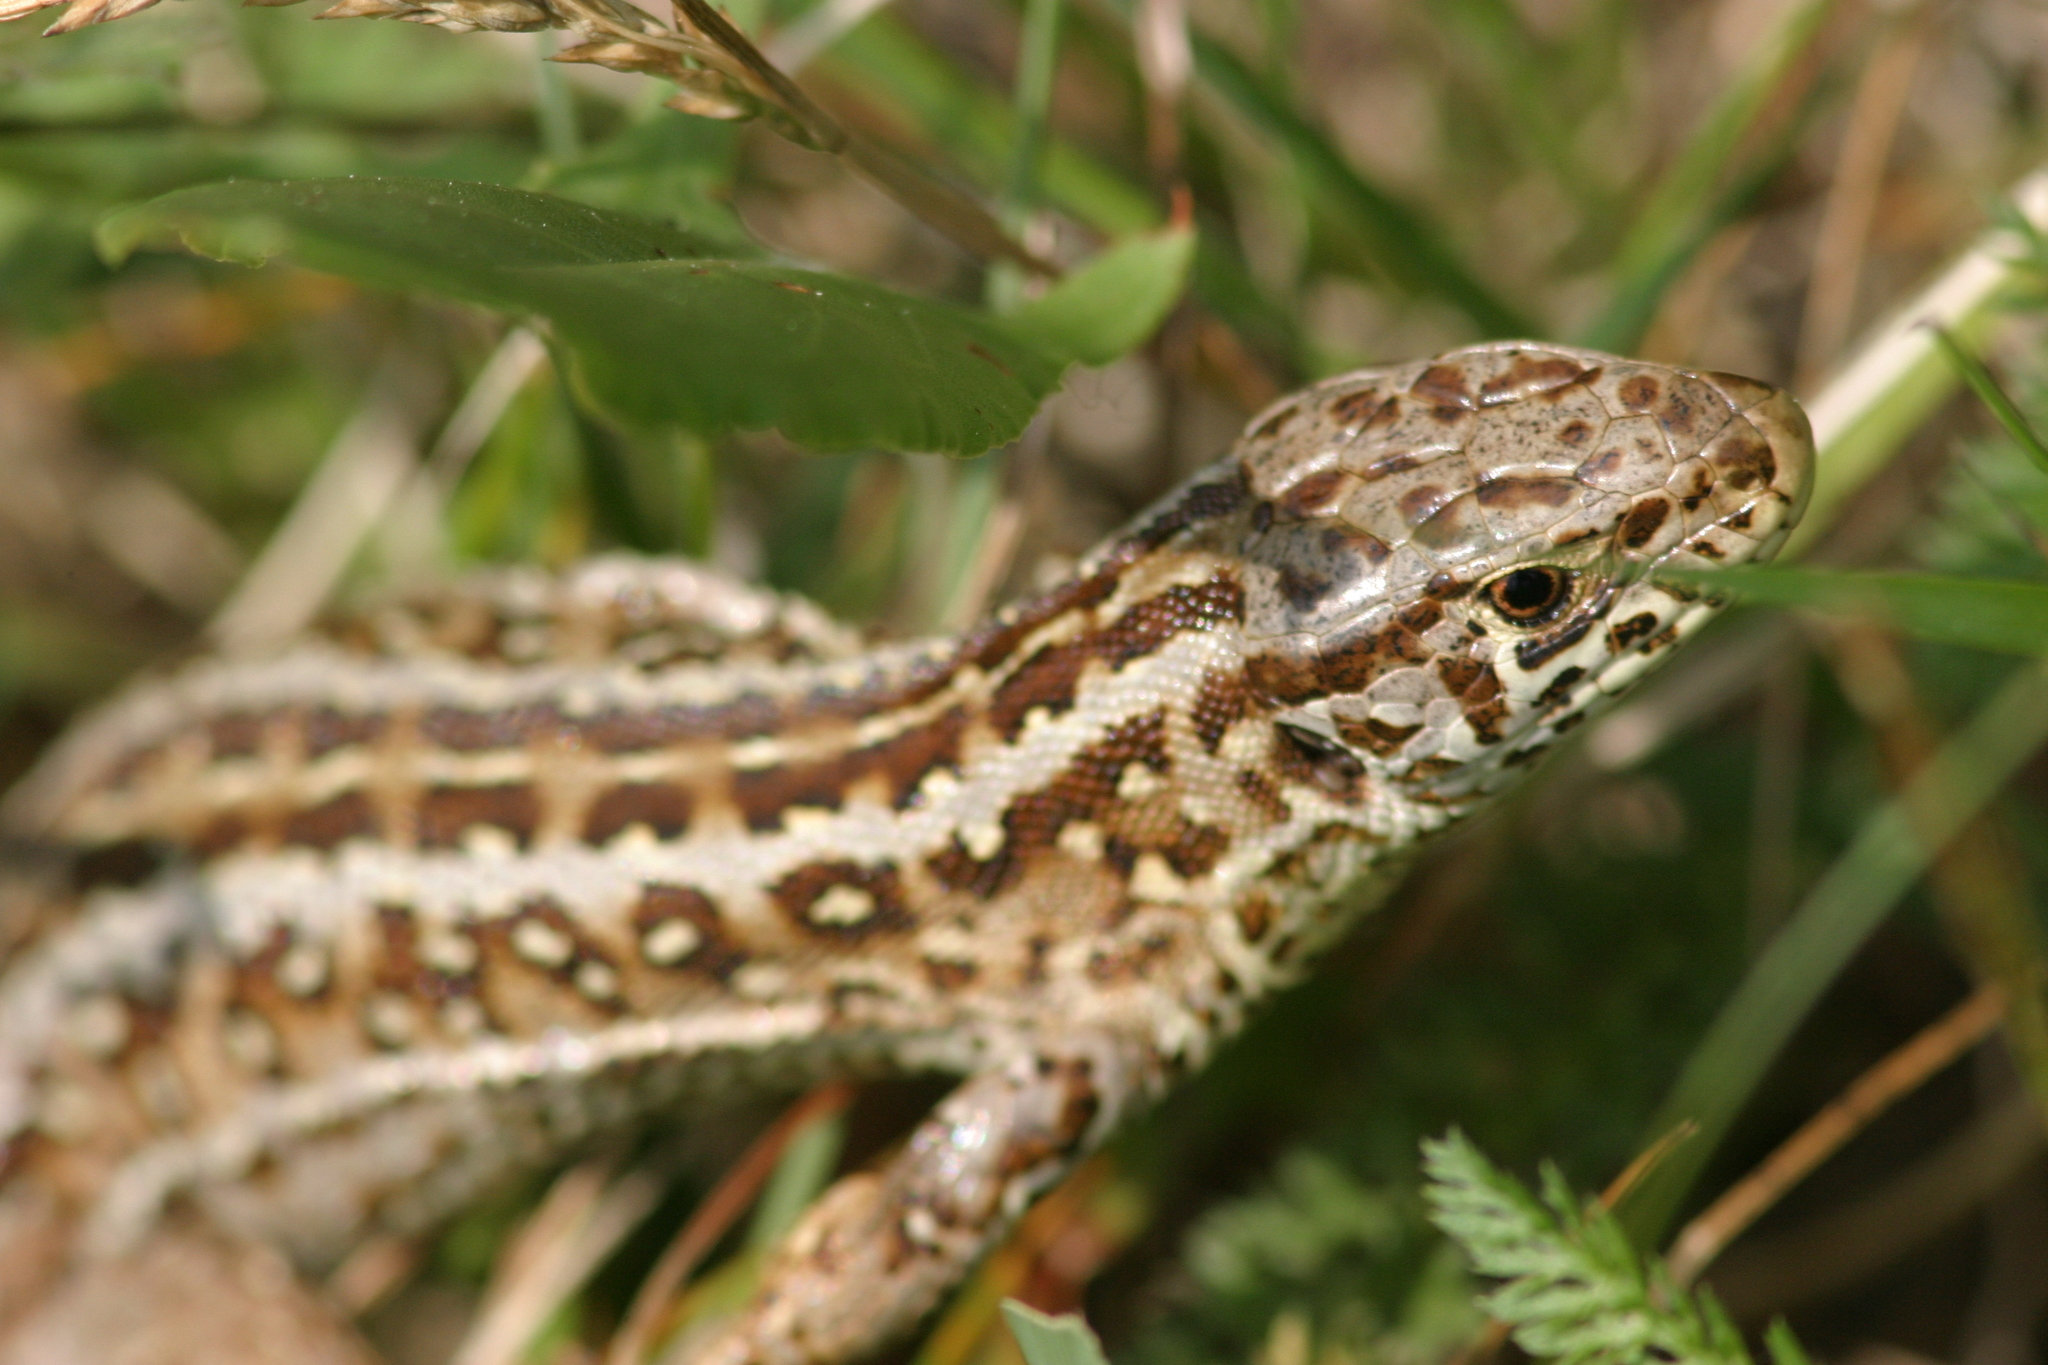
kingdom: Animalia
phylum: Chordata
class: Squamata
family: Lacertidae
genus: Lacerta
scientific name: Lacerta agilis
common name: Sand lizard
